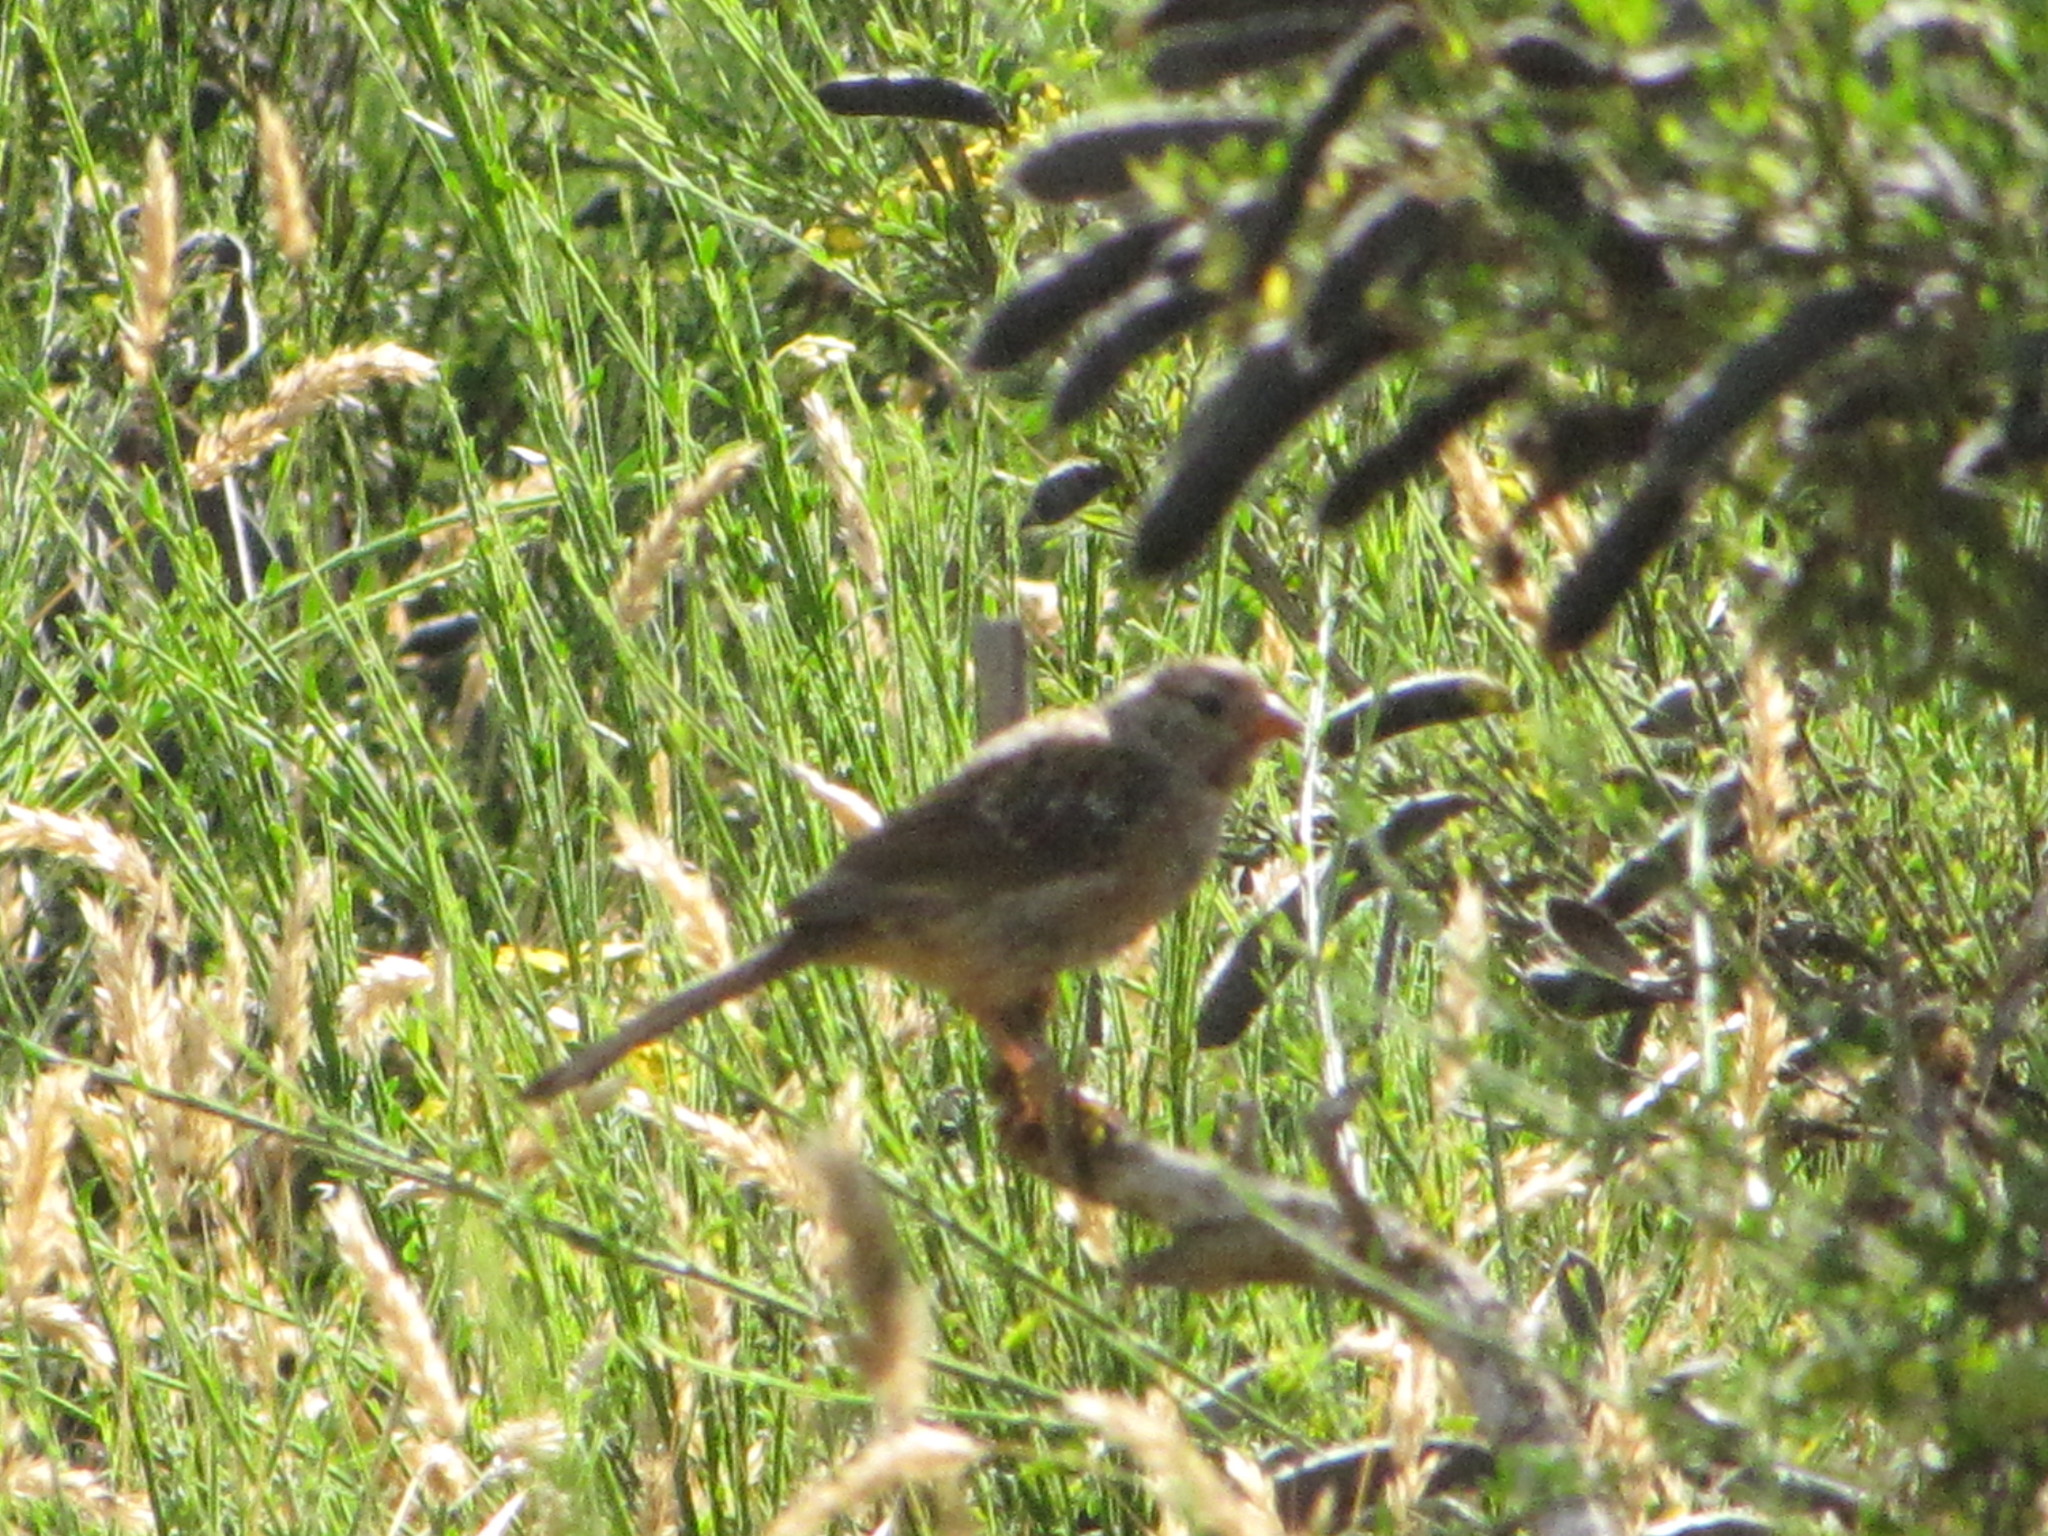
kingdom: Animalia
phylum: Chordata
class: Aves
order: Passeriformes
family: Passerellidae
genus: Zonotrichia
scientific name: Zonotrichia leucophrys
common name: White-crowned sparrow
